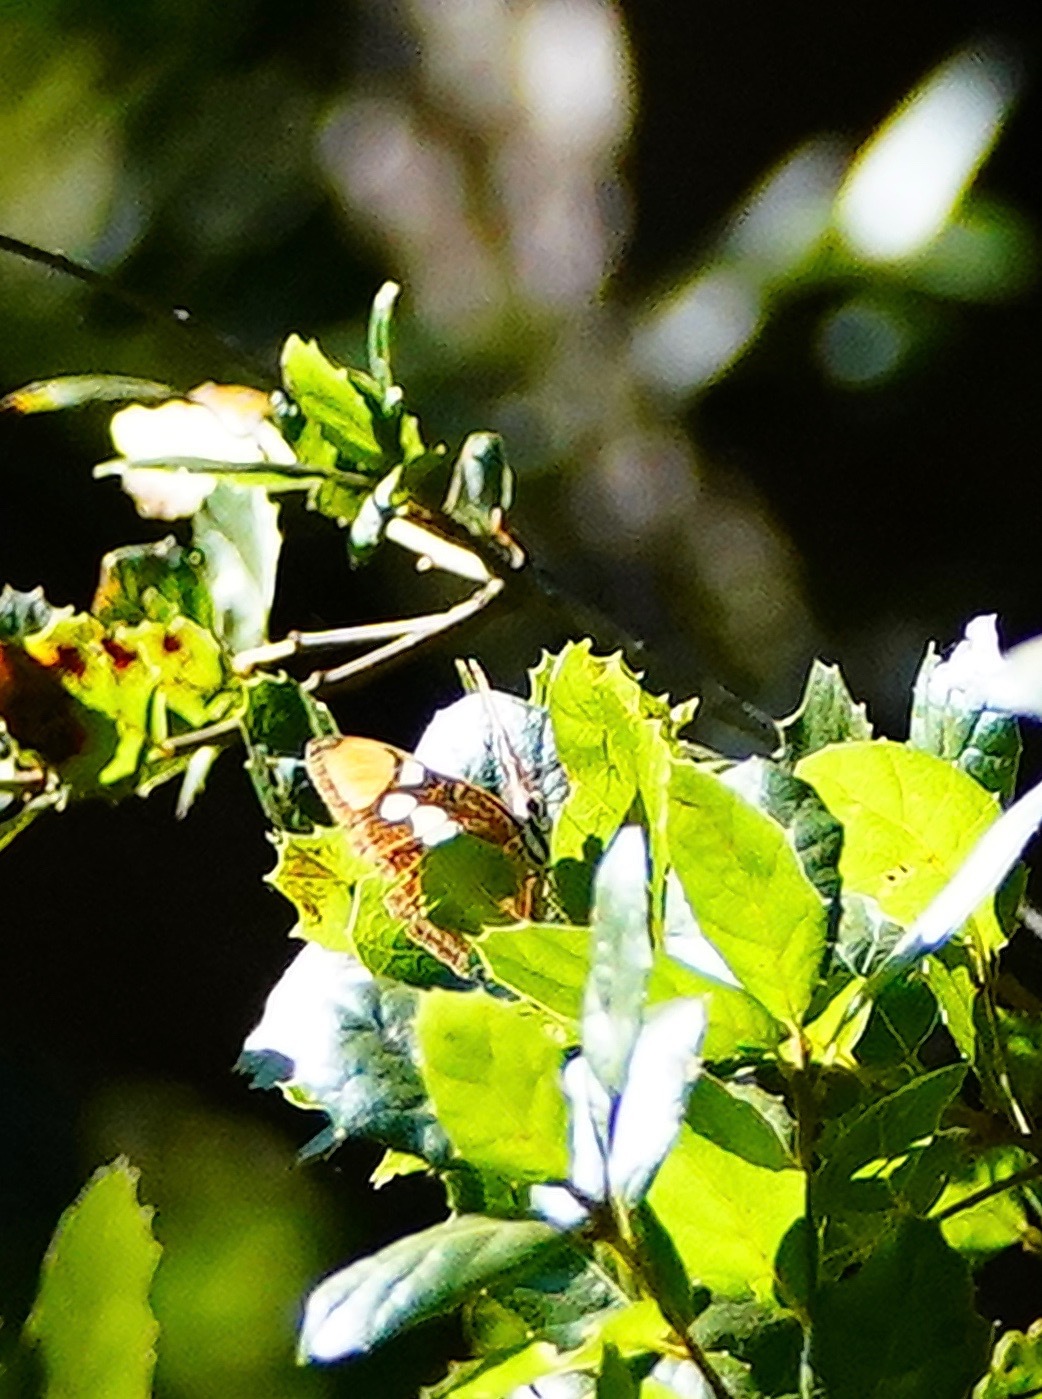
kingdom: Animalia
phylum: Arthropoda
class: Insecta
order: Lepidoptera
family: Nymphalidae
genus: Limenitis
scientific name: Limenitis bredowii
